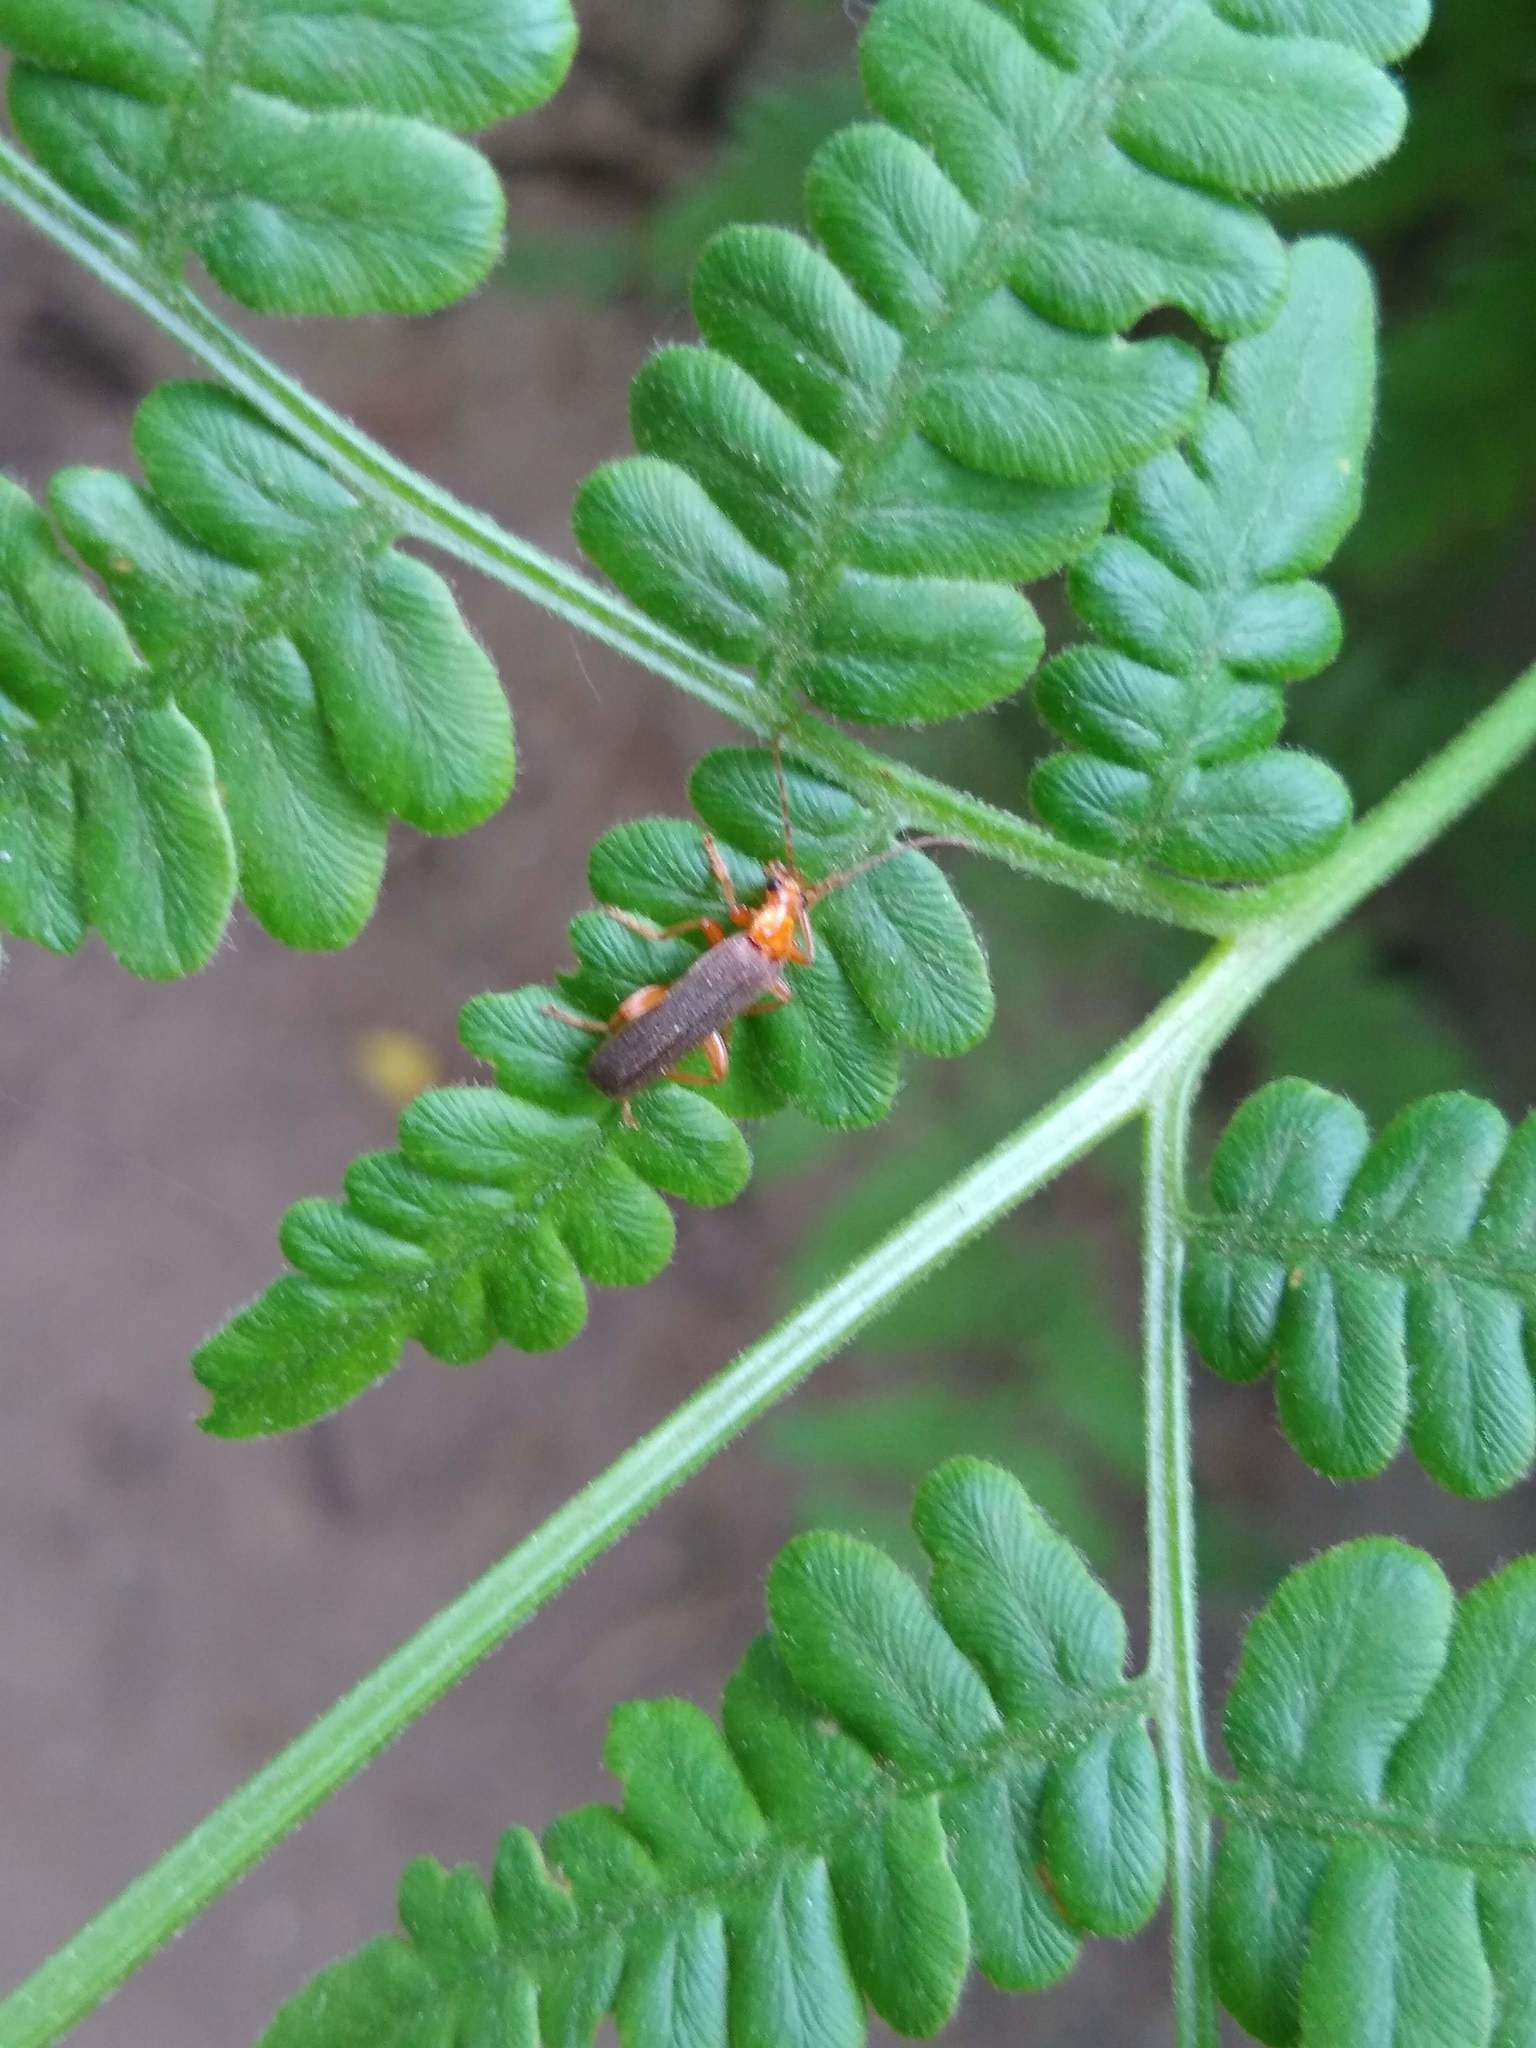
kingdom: Animalia
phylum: Arthropoda
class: Insecta
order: Coleoptera
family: Cantharidae
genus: Cultellunguis
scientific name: Cultellunguis perpallens
